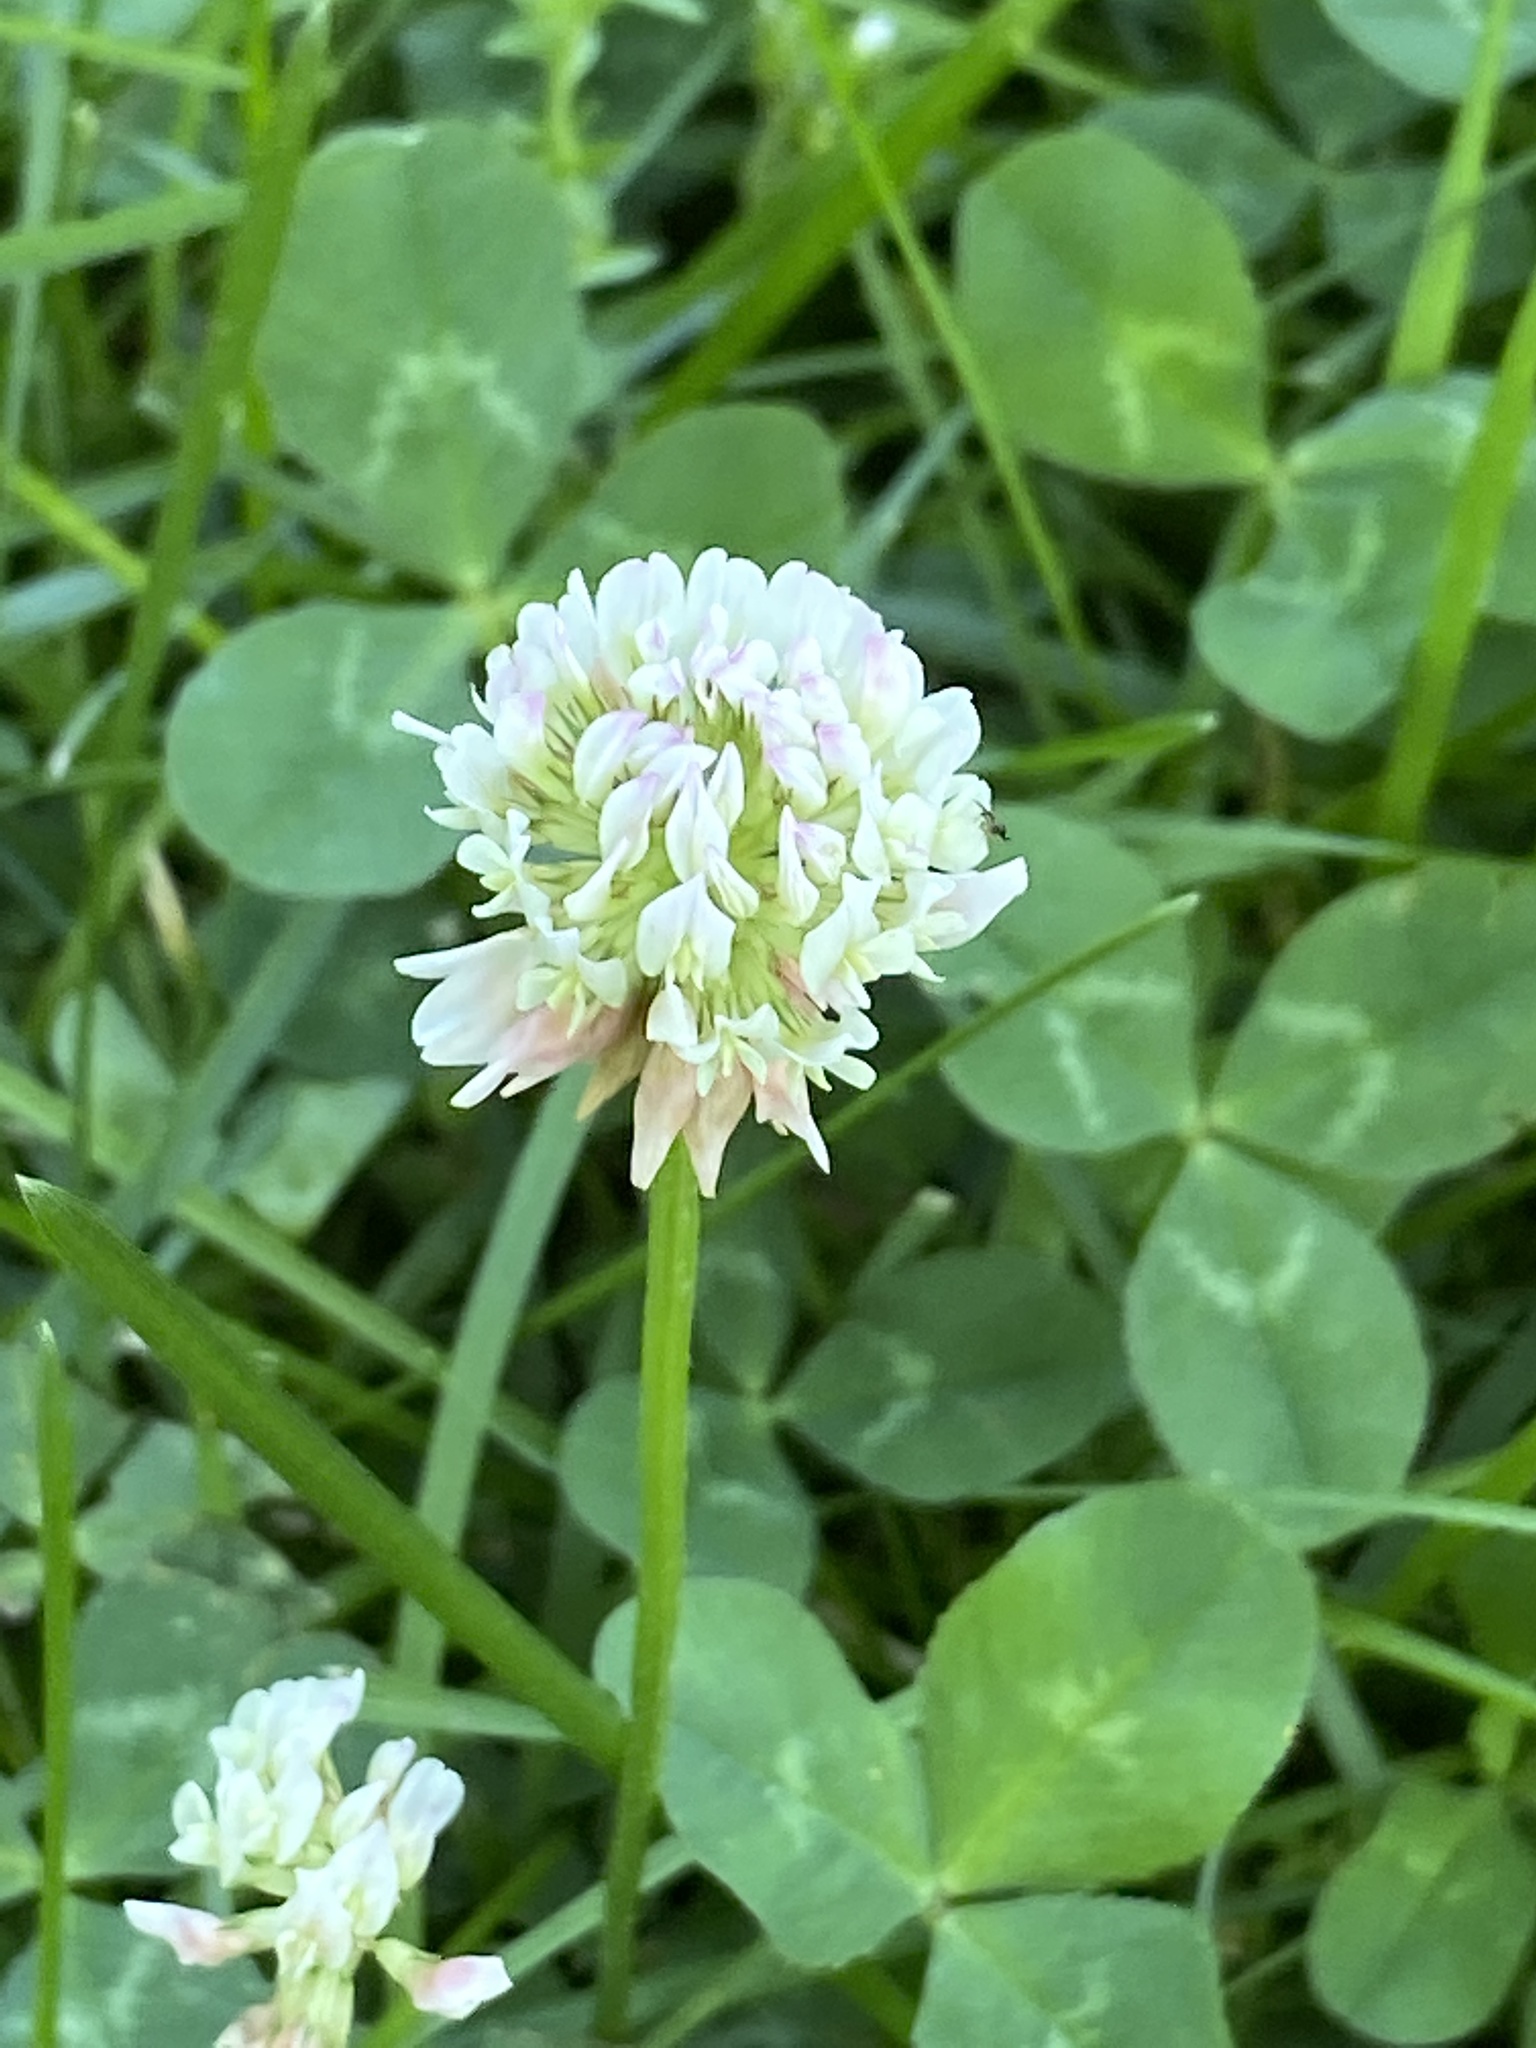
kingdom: Plantae
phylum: Tracheophyta
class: Magnoliopsida
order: Fabales
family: Fabaceae
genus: Trifolium
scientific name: Trifolium repens
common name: White clover
